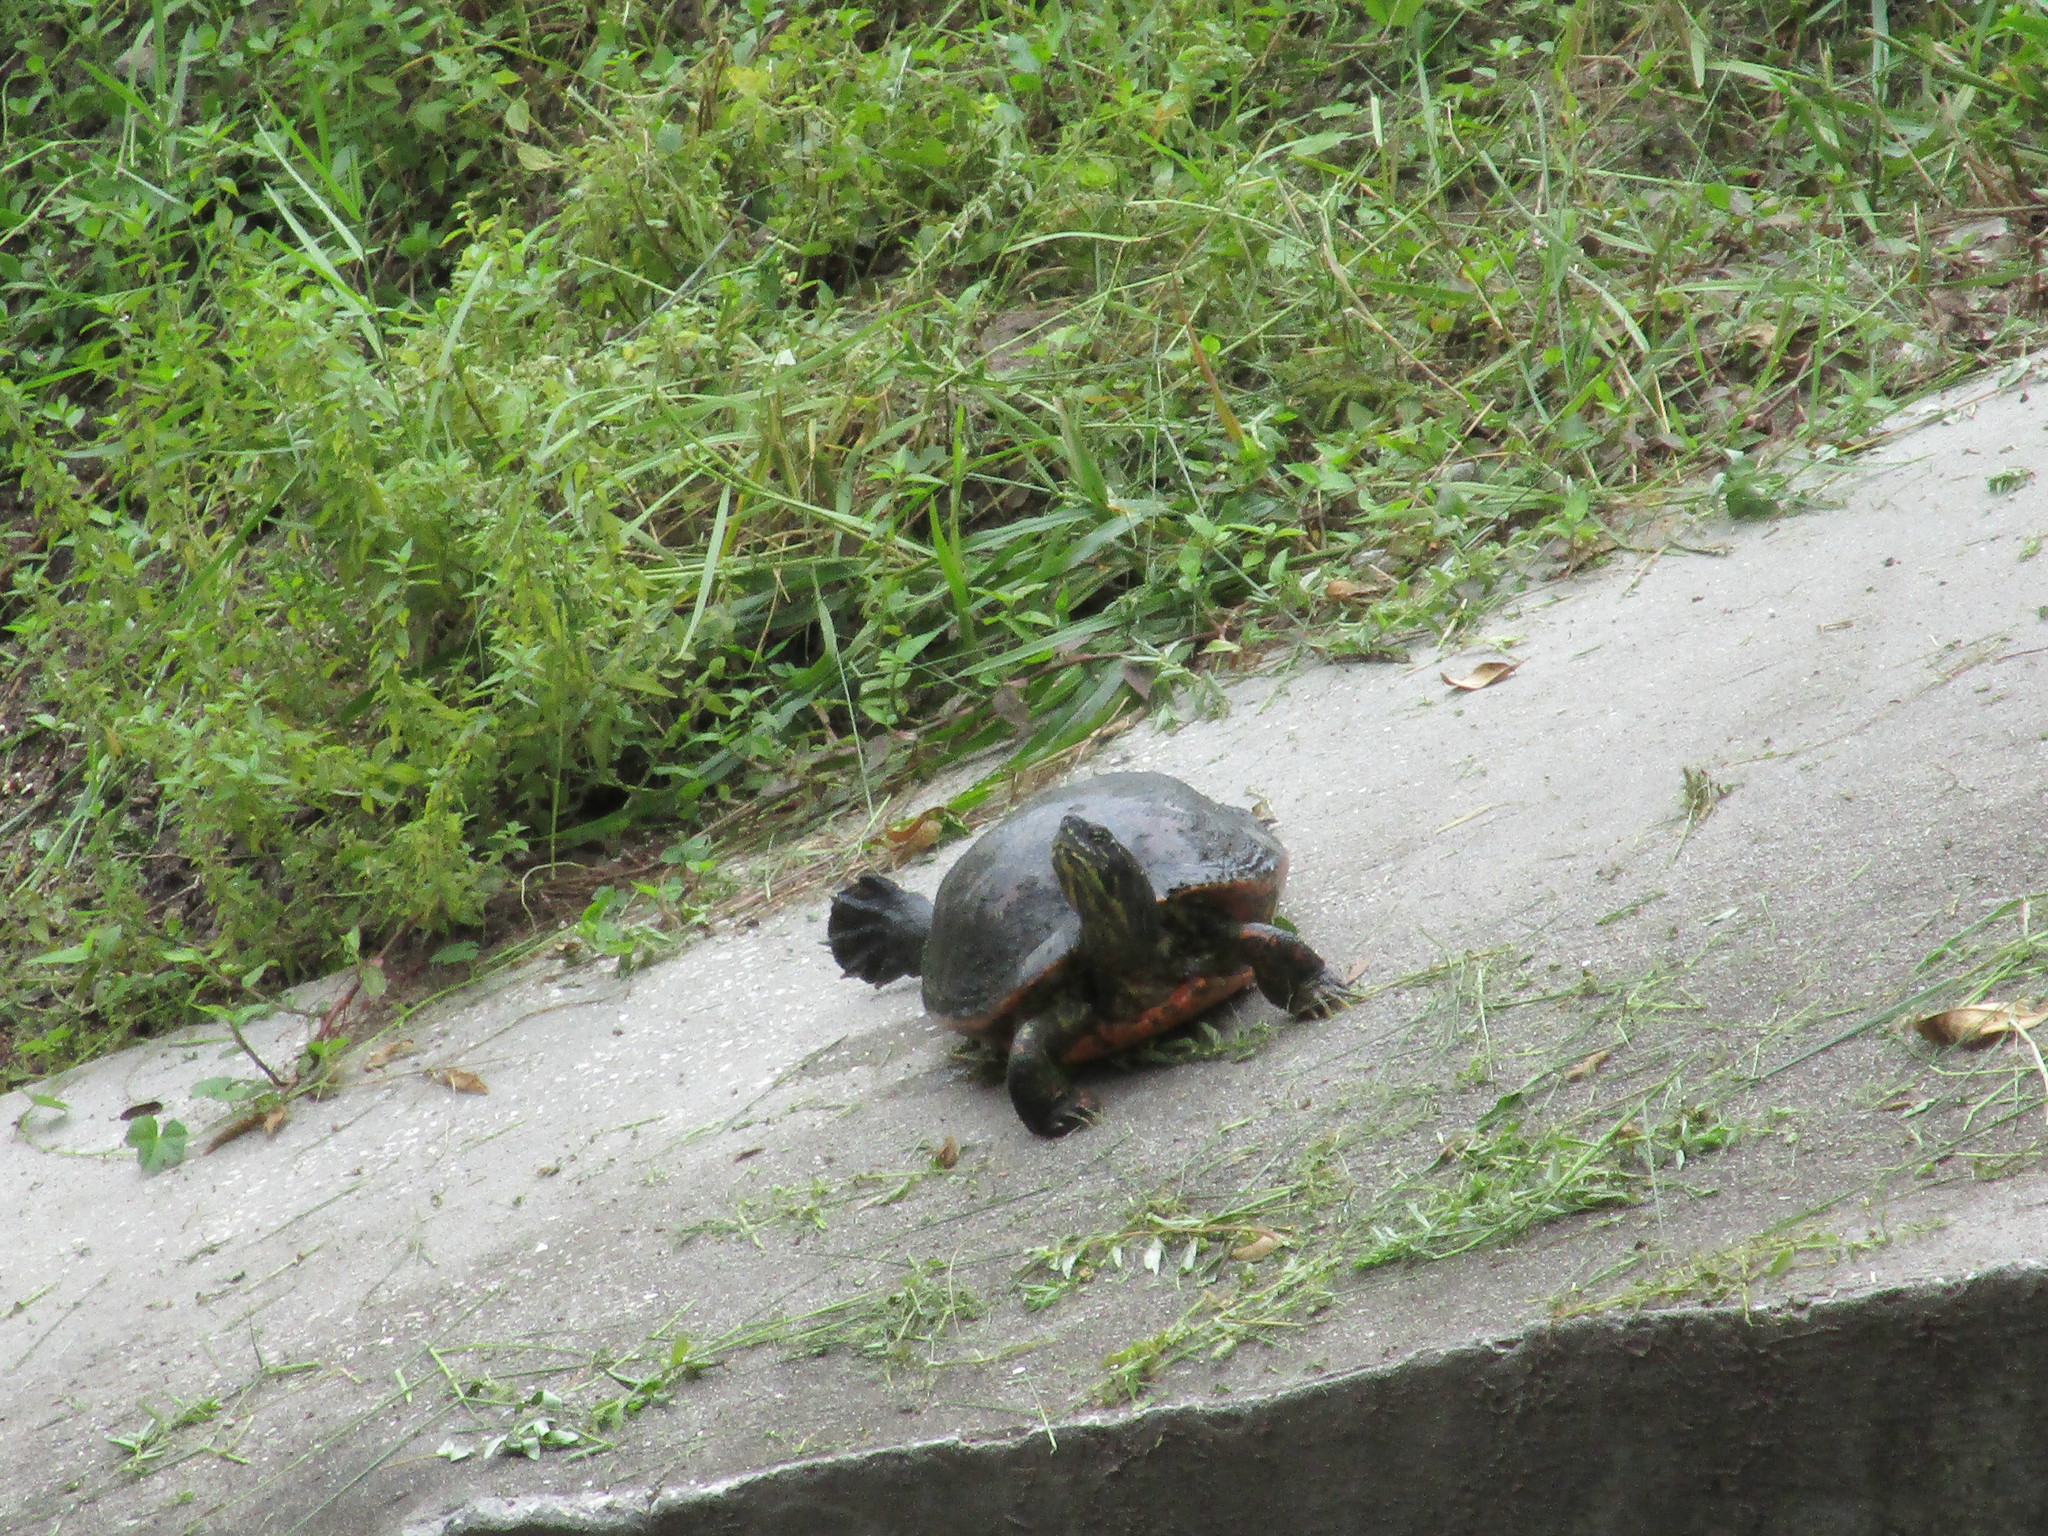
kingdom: Animalia
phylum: Chordata
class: Testudines
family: Emydidae
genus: Pseudemys
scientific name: Pseudemys nelsoni
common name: Florida red-bellied turtle
